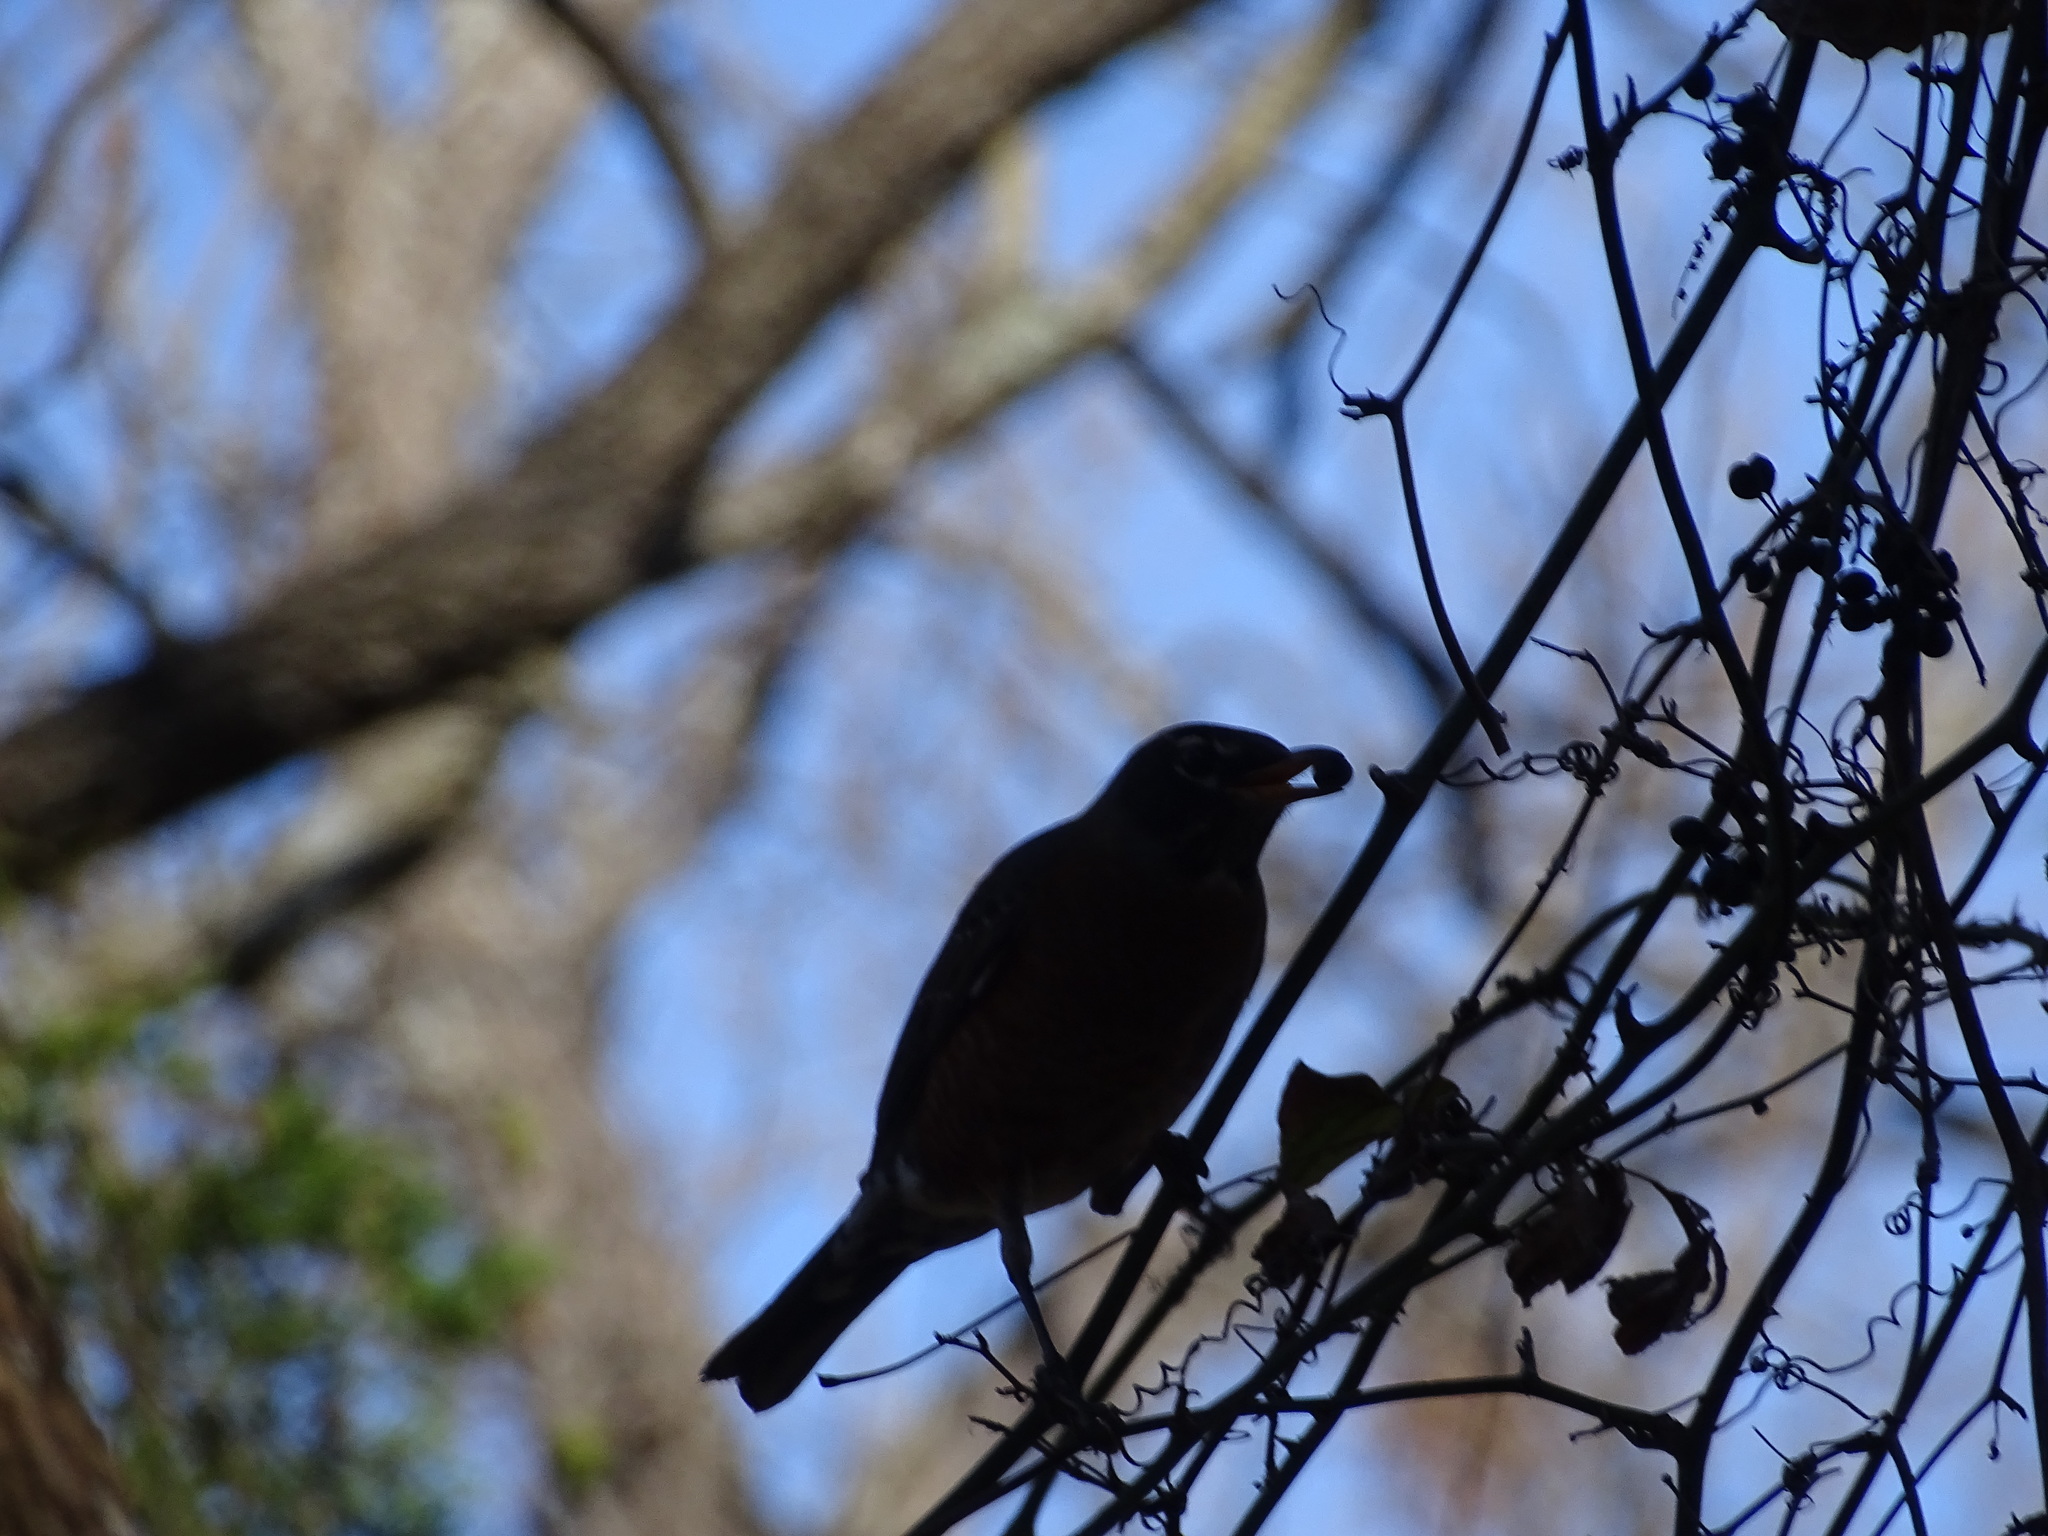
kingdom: Animalia
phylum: Chordata
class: Aves
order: Passeriformes
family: Turdidae
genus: Turdus
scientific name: Turdus migratorius
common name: American robin
